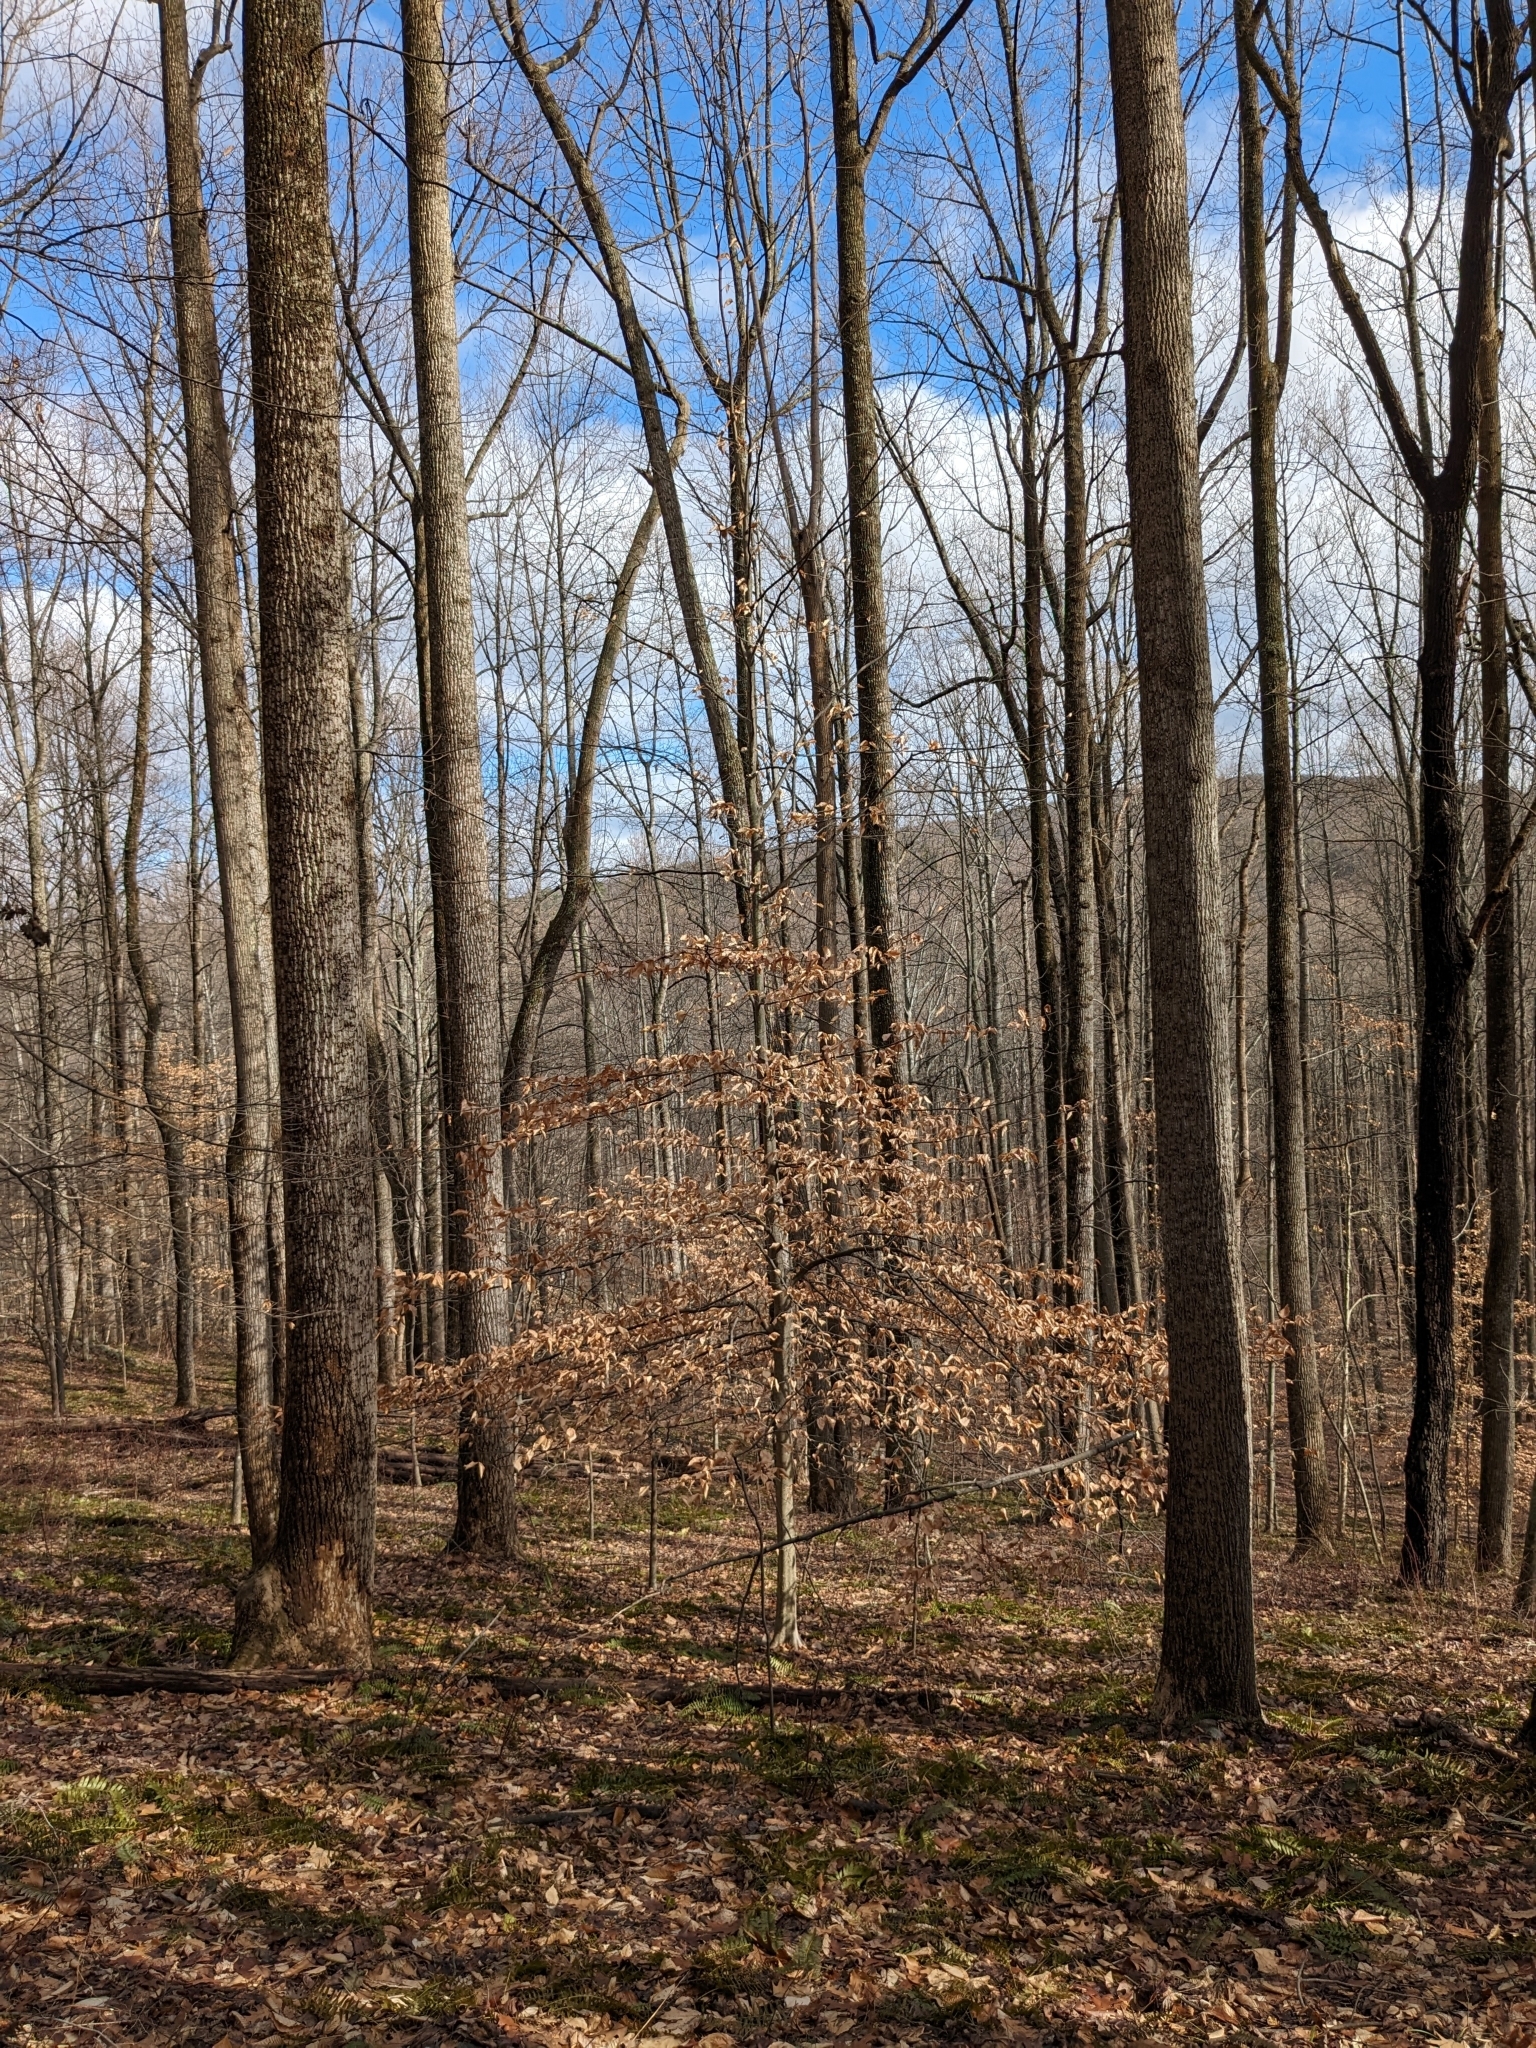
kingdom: Plantae
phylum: Tracheophyta
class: Magnoliopsida
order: Fagales
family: Fagaceae
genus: Fagus
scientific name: Fagus grandifolia
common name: American beech
